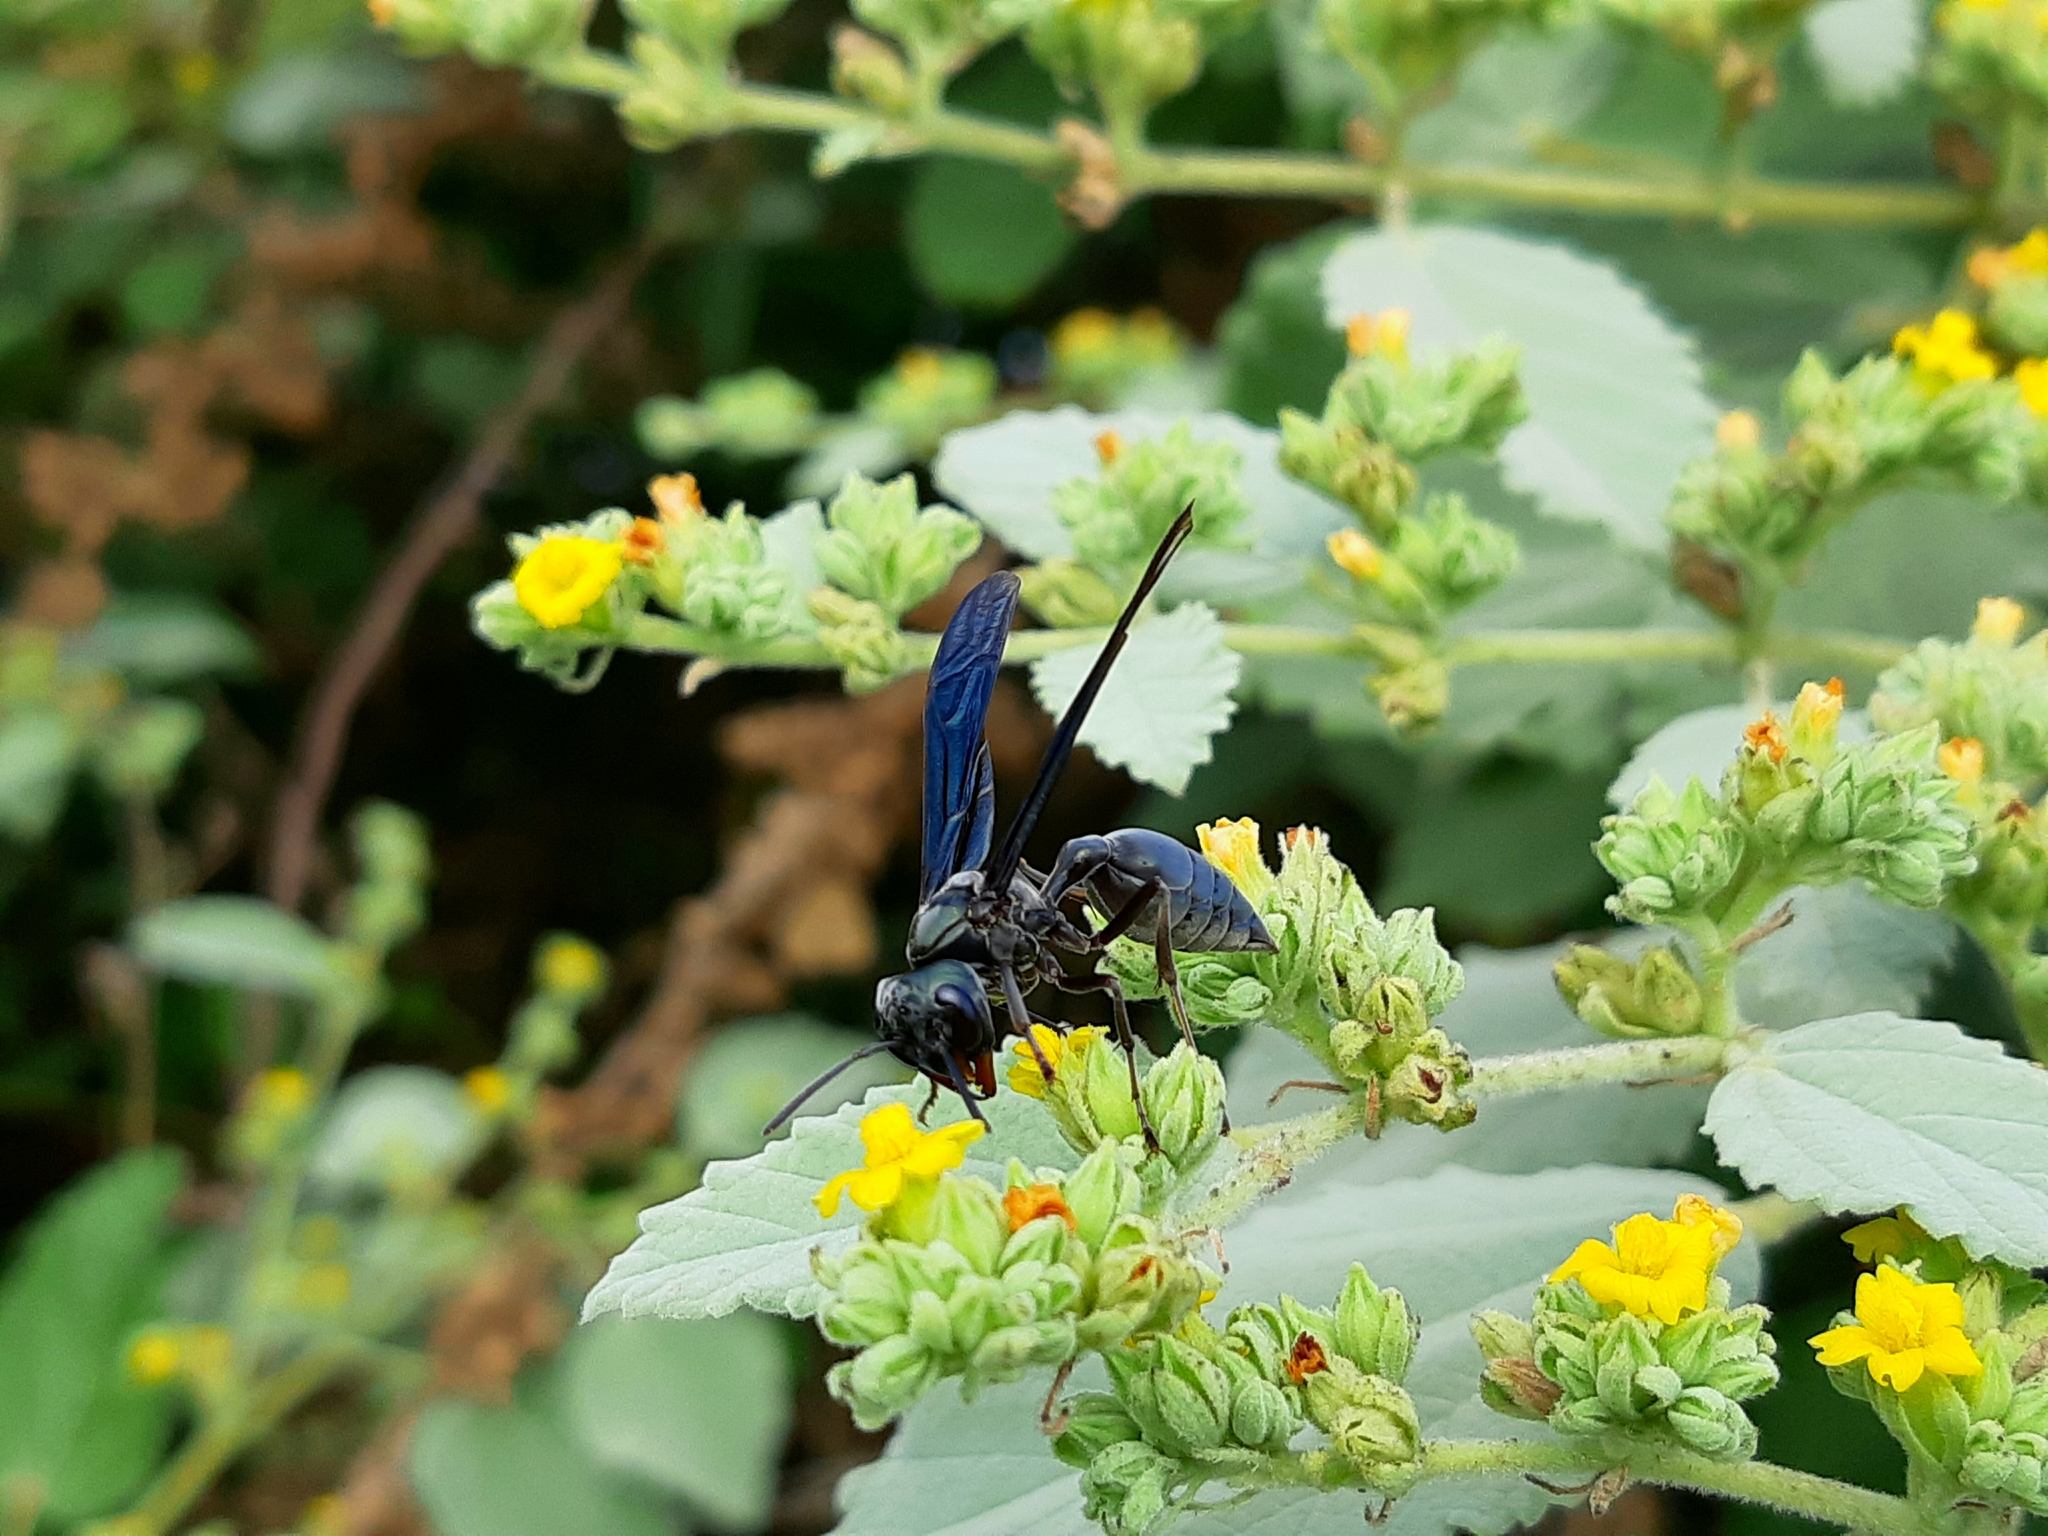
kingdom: Animalia
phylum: Arthropoda
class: Insecta
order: Hymenoptera
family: Vespidae
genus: Synoeca
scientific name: Synoeca septentrionalis
